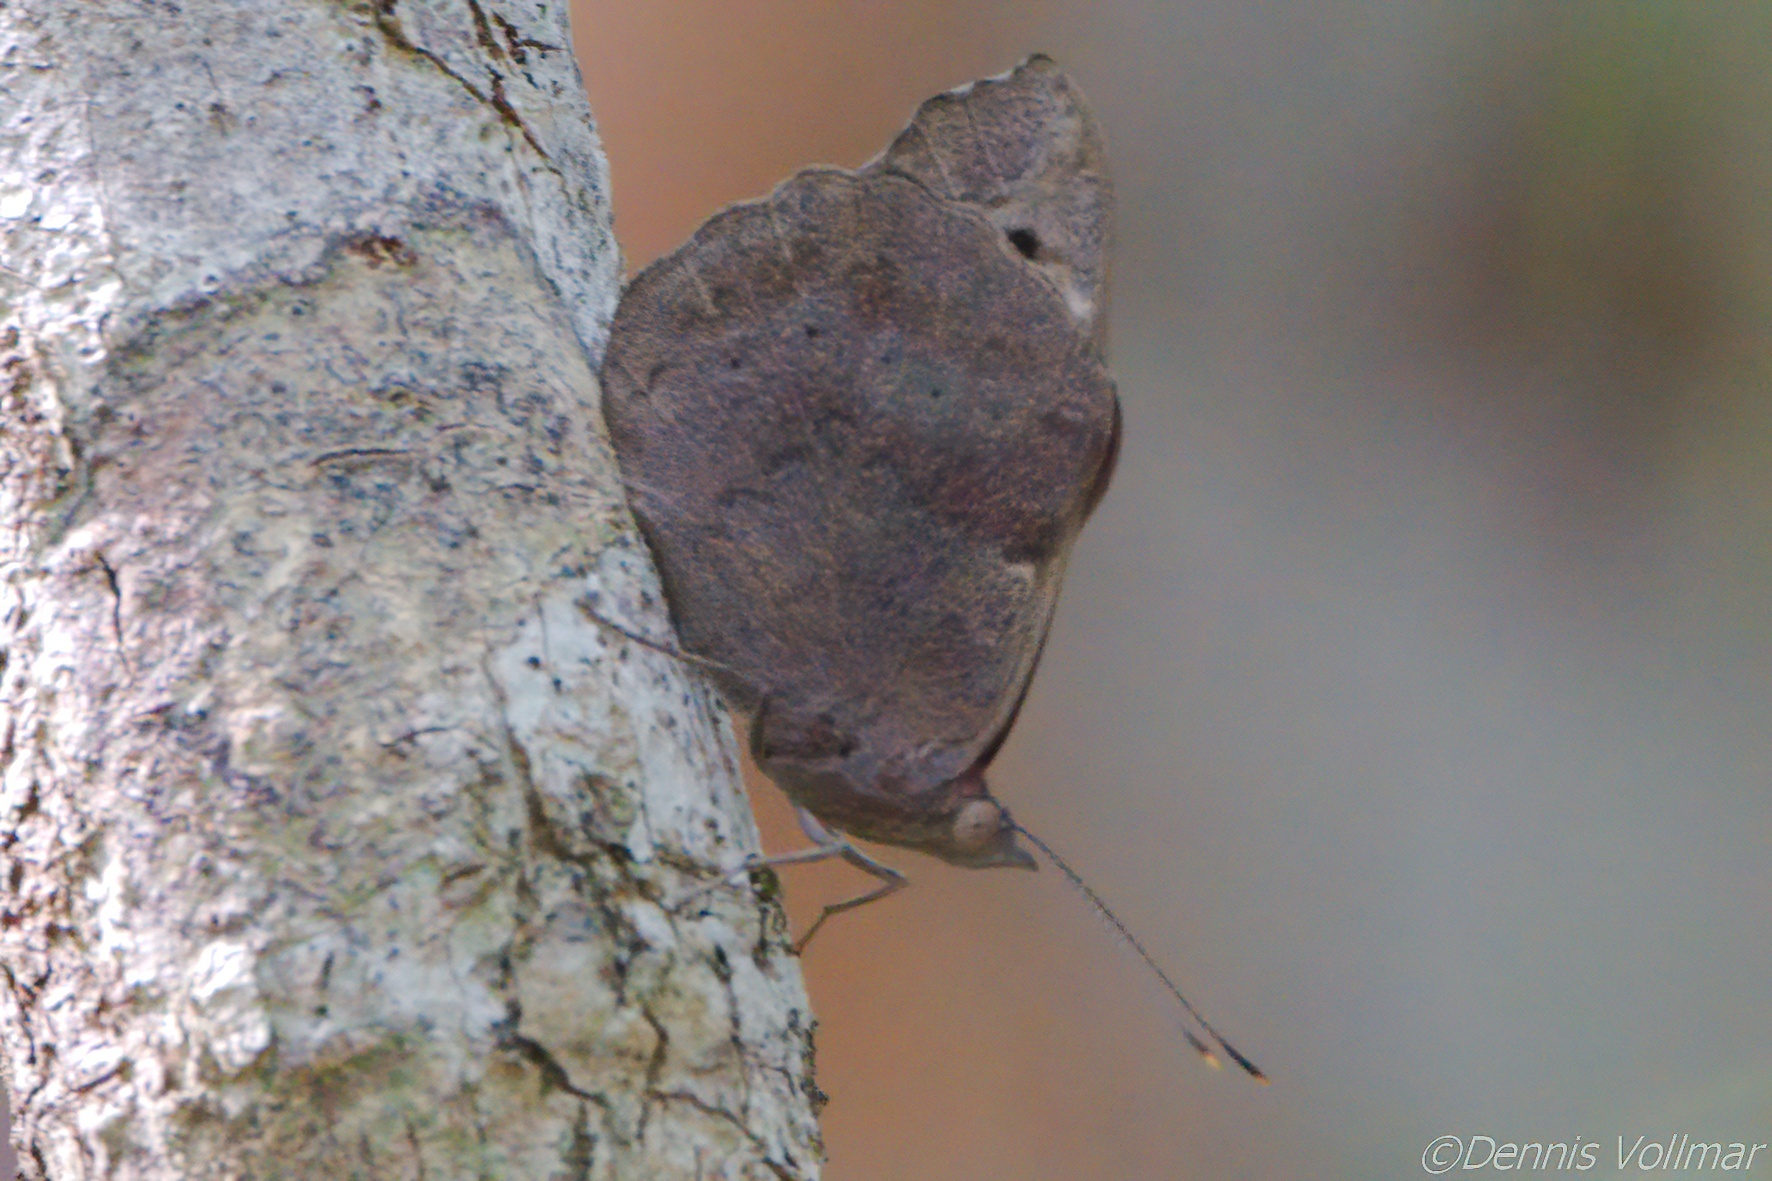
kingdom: Animalia
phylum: Arthropoda
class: Insecta
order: Lepidoptera
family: Nymphalidae
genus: Eunica
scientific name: Eunica tatila
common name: Florida purplewing
